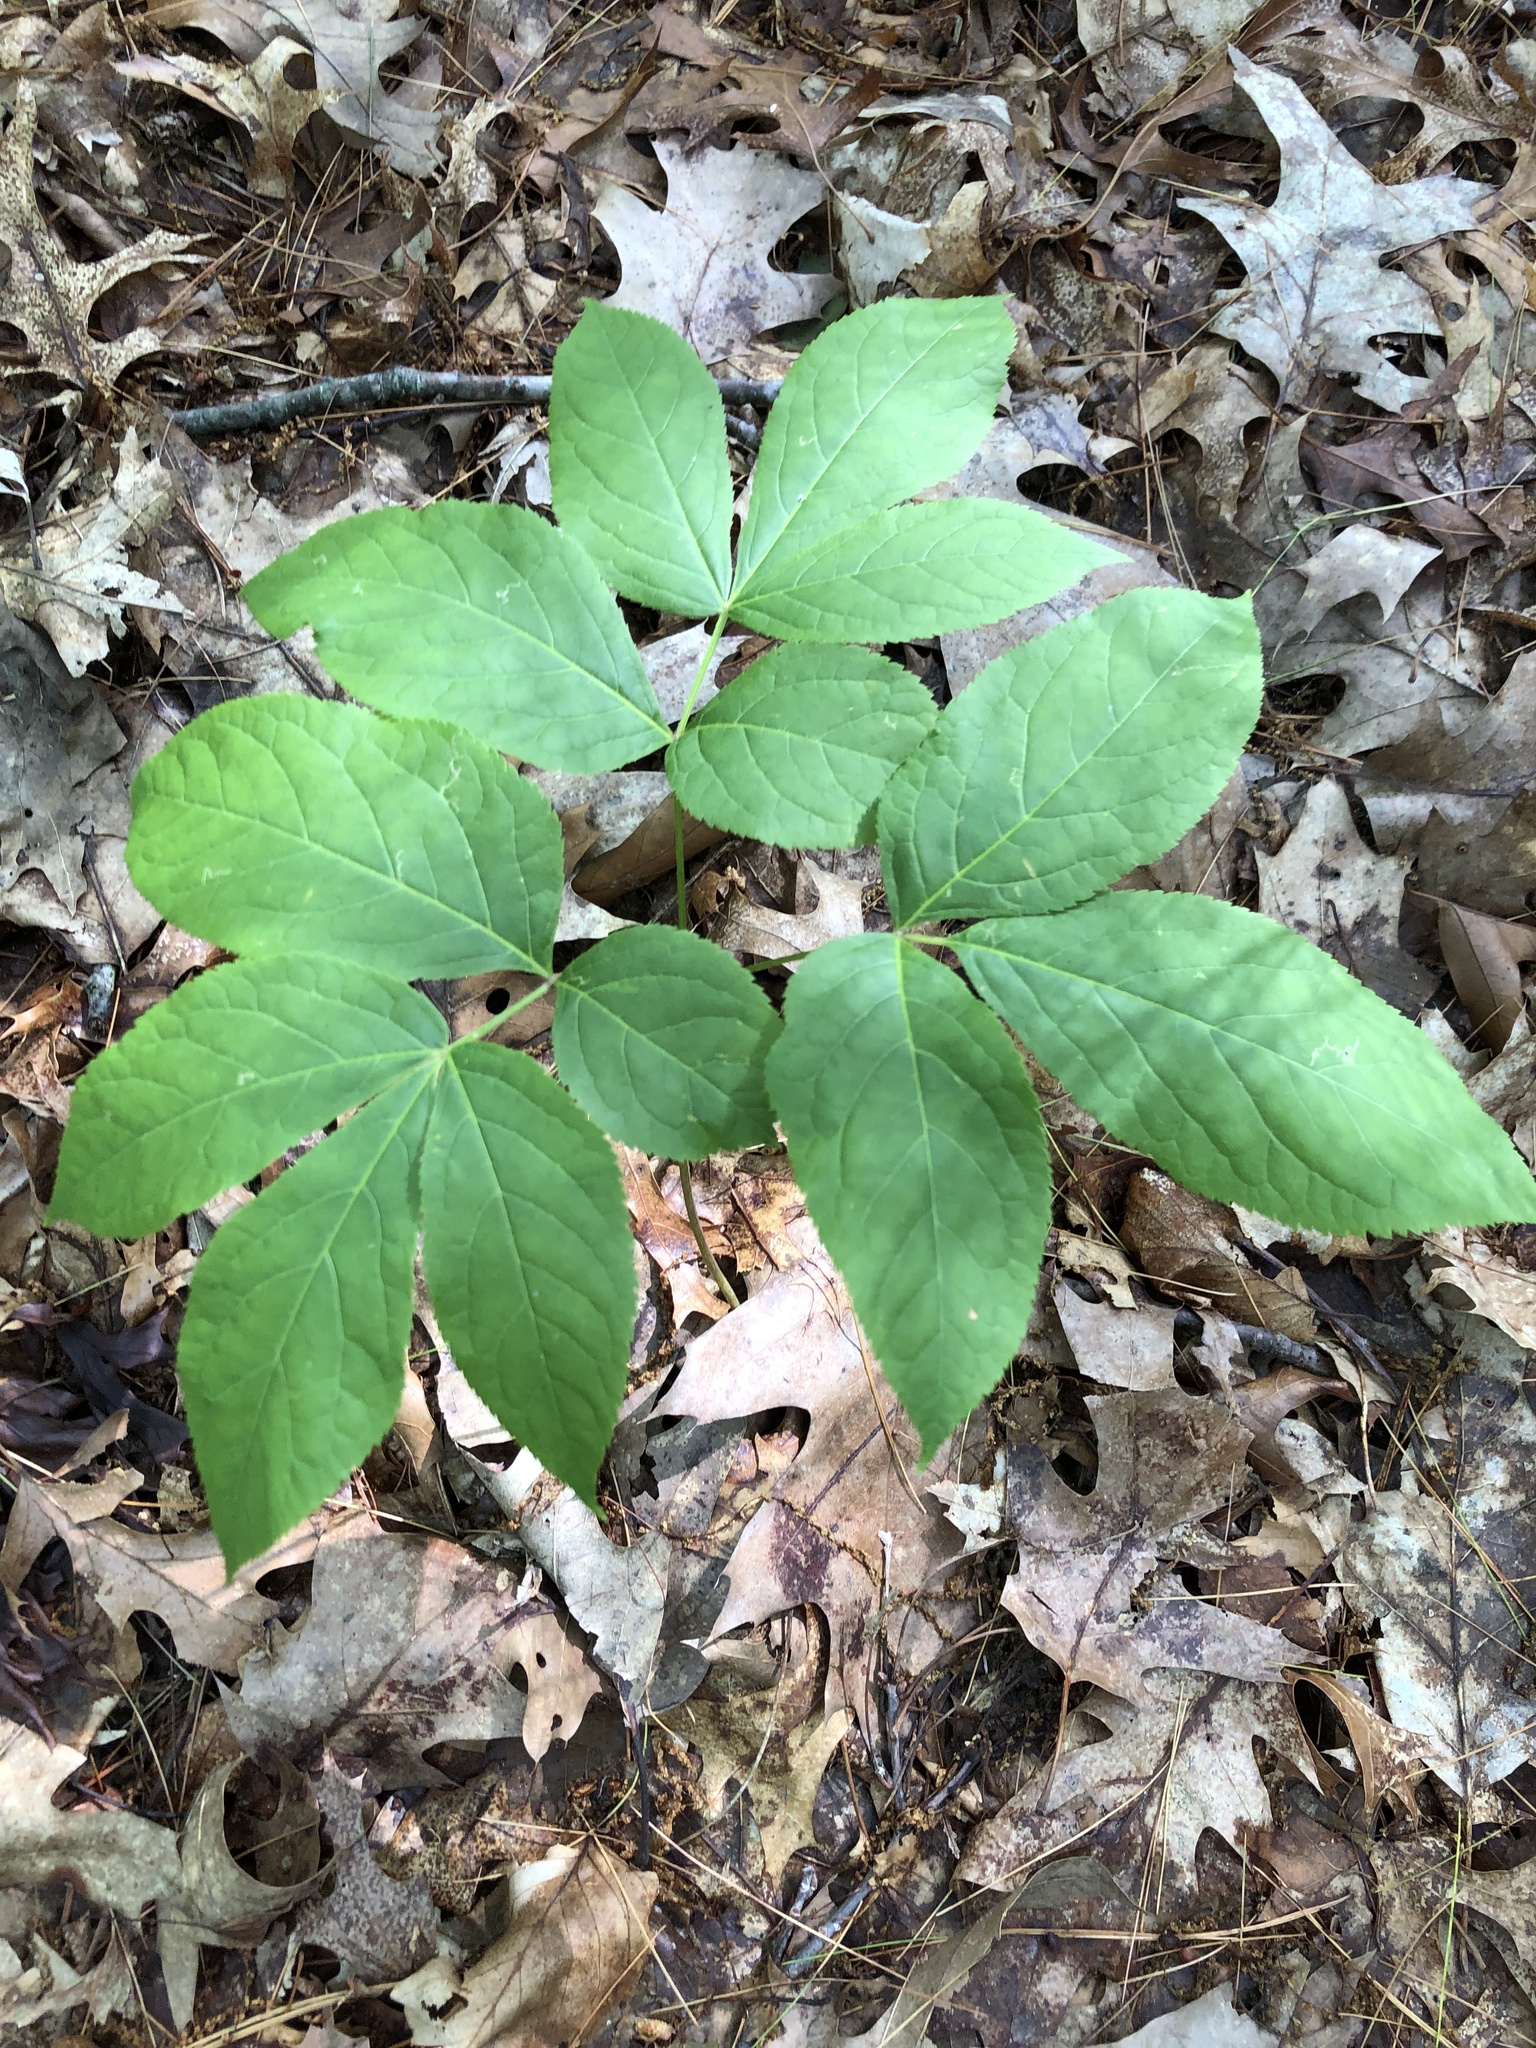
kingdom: Plantae
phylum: Tracheophyta
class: Magnoliopsida
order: Apiales
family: Araliaceae
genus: Aralia
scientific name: Aralia nudicaulis
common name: Wild sarsaparilla
